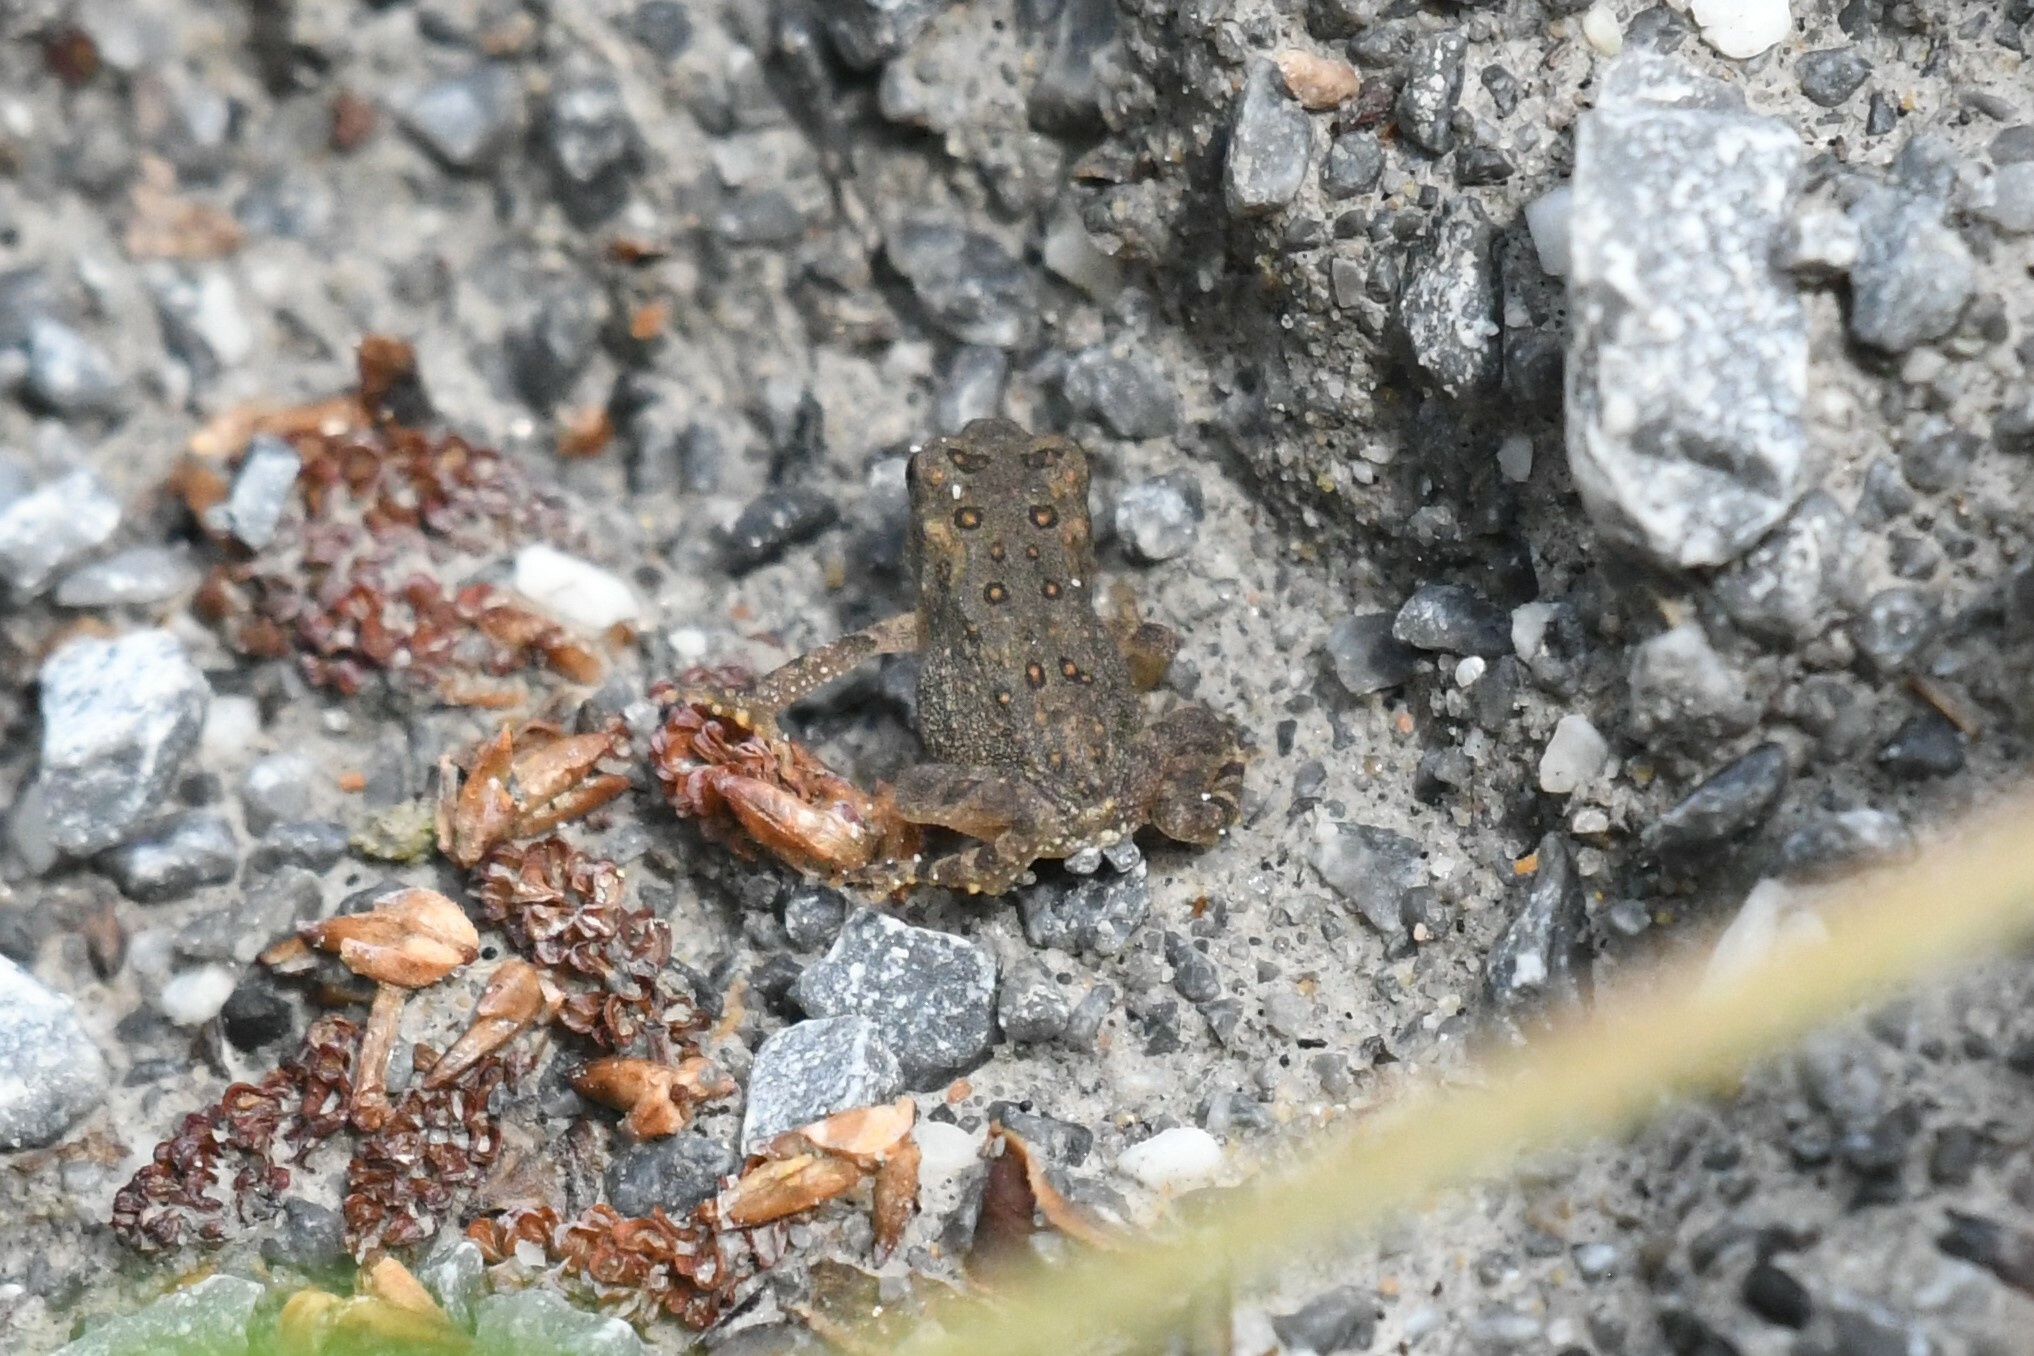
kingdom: Animalia
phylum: Chordata
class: Amphibia
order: Anura
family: Bufonidae
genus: Anaxyrus
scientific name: Anaxyrus americanus
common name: American toad
